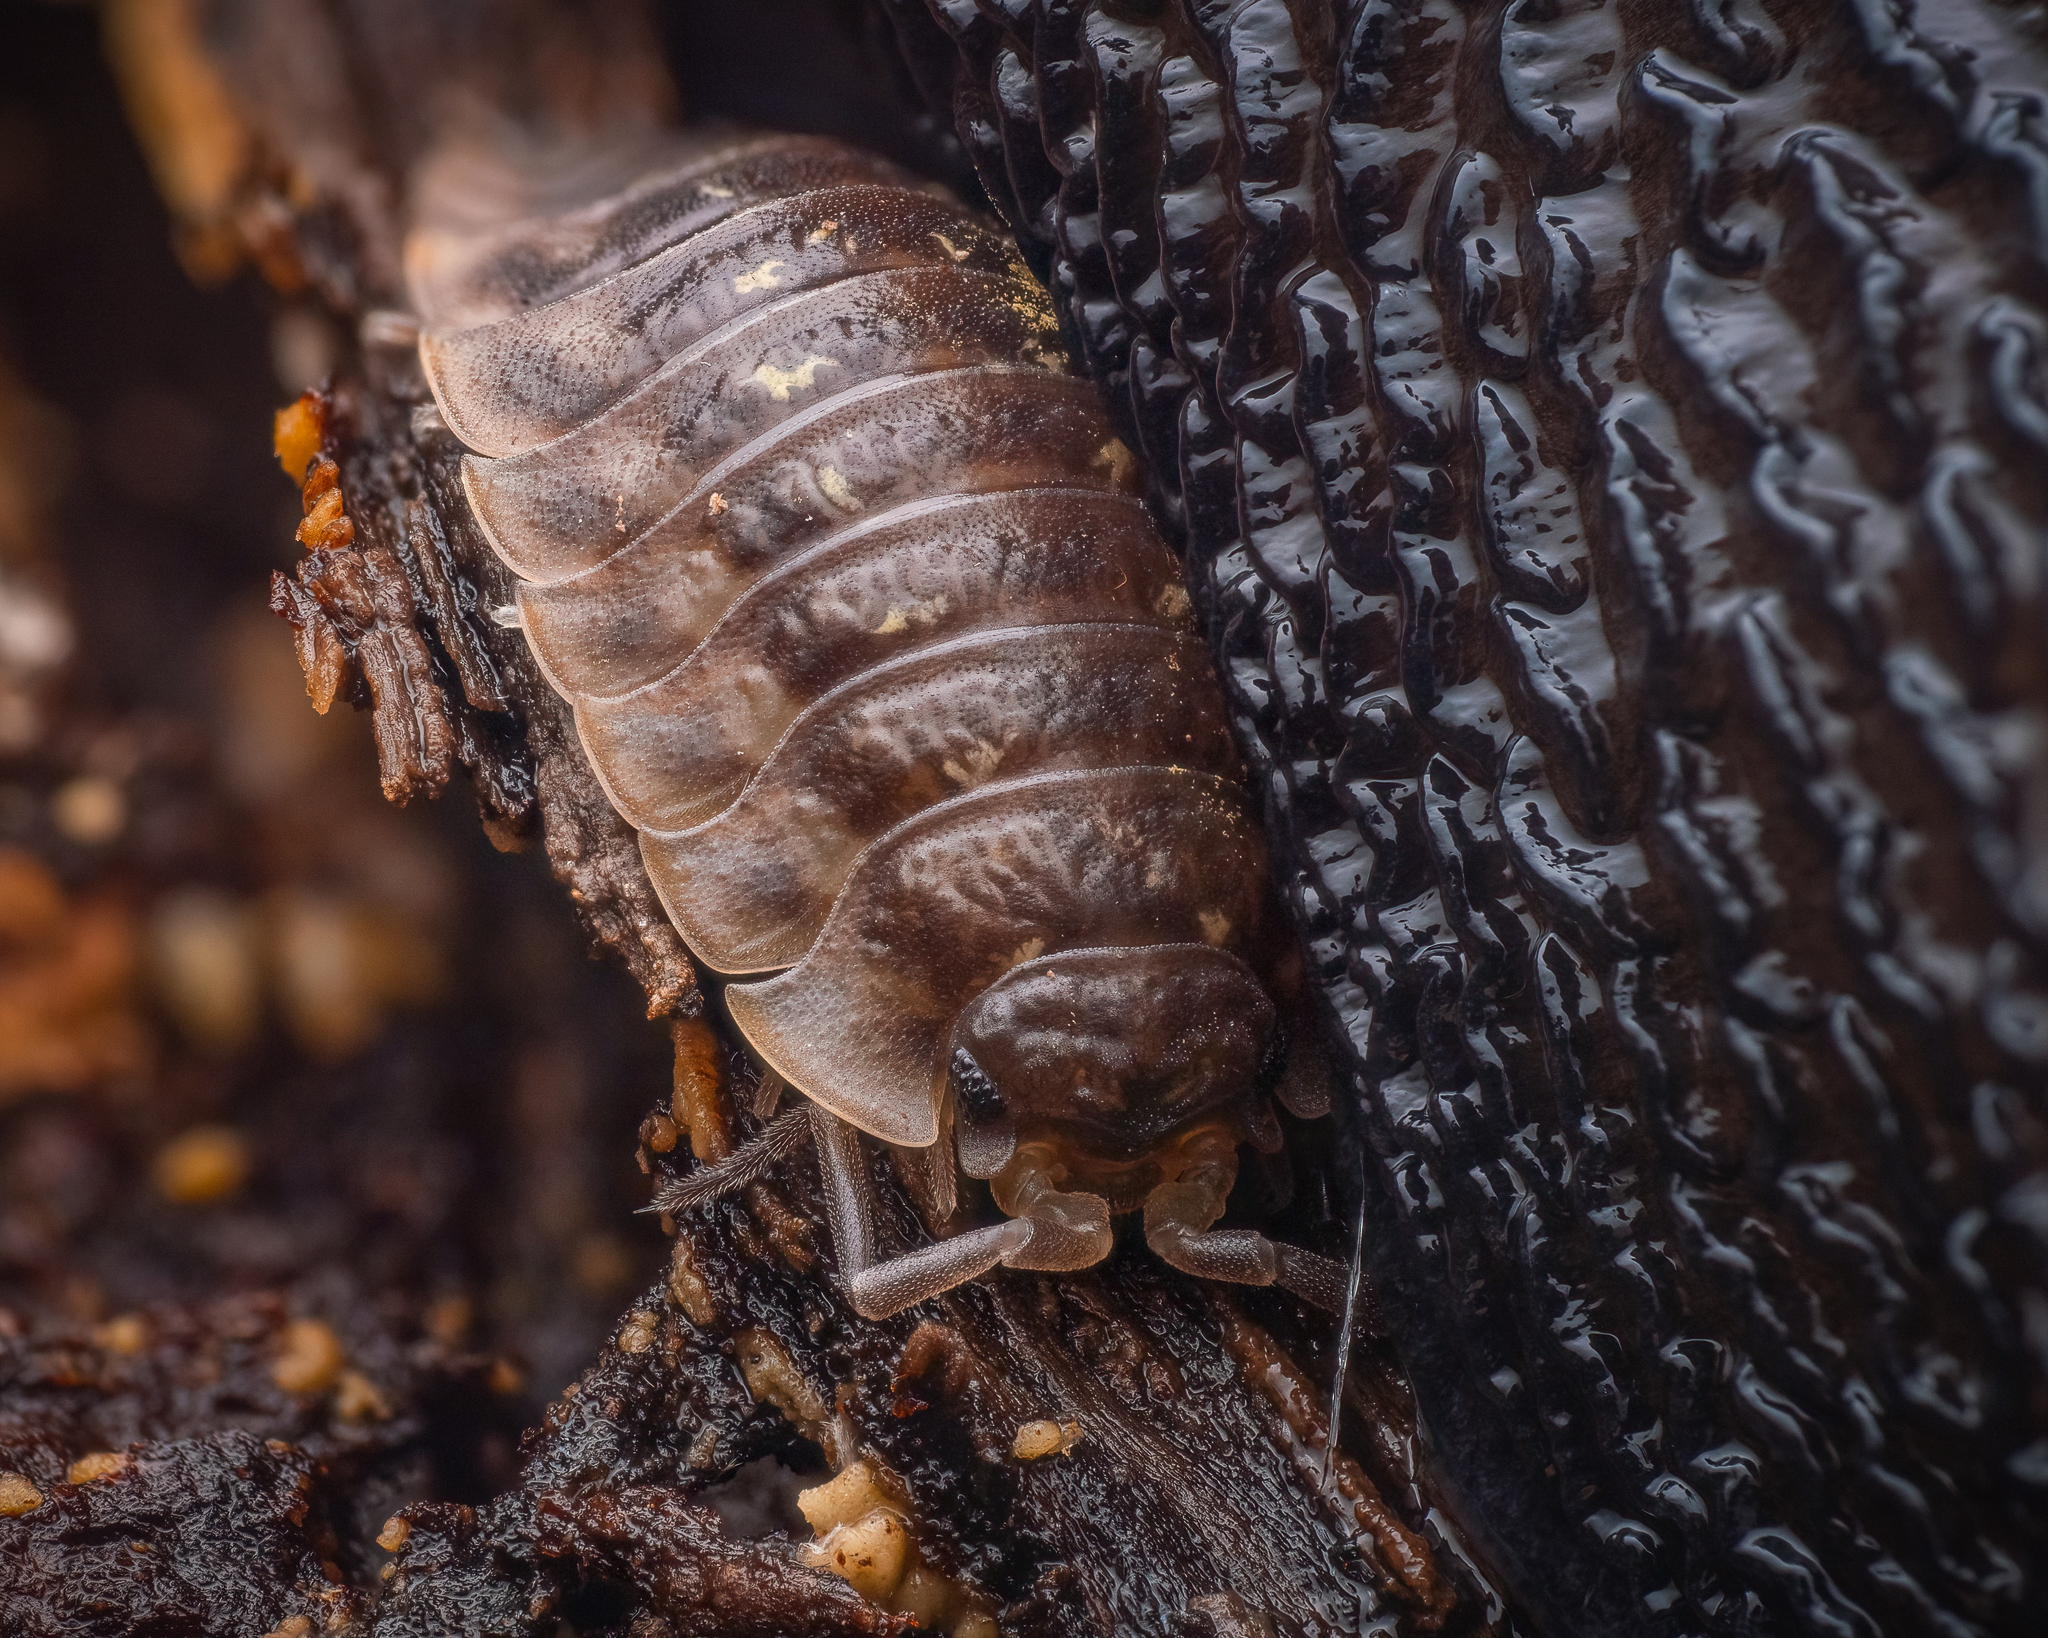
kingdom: Animalia
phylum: Arthropoda
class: Malacostraca
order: Isopoda
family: Oniscidae
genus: Oniscus
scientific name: Oniscus asellus
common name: Common shiny woodlouse
